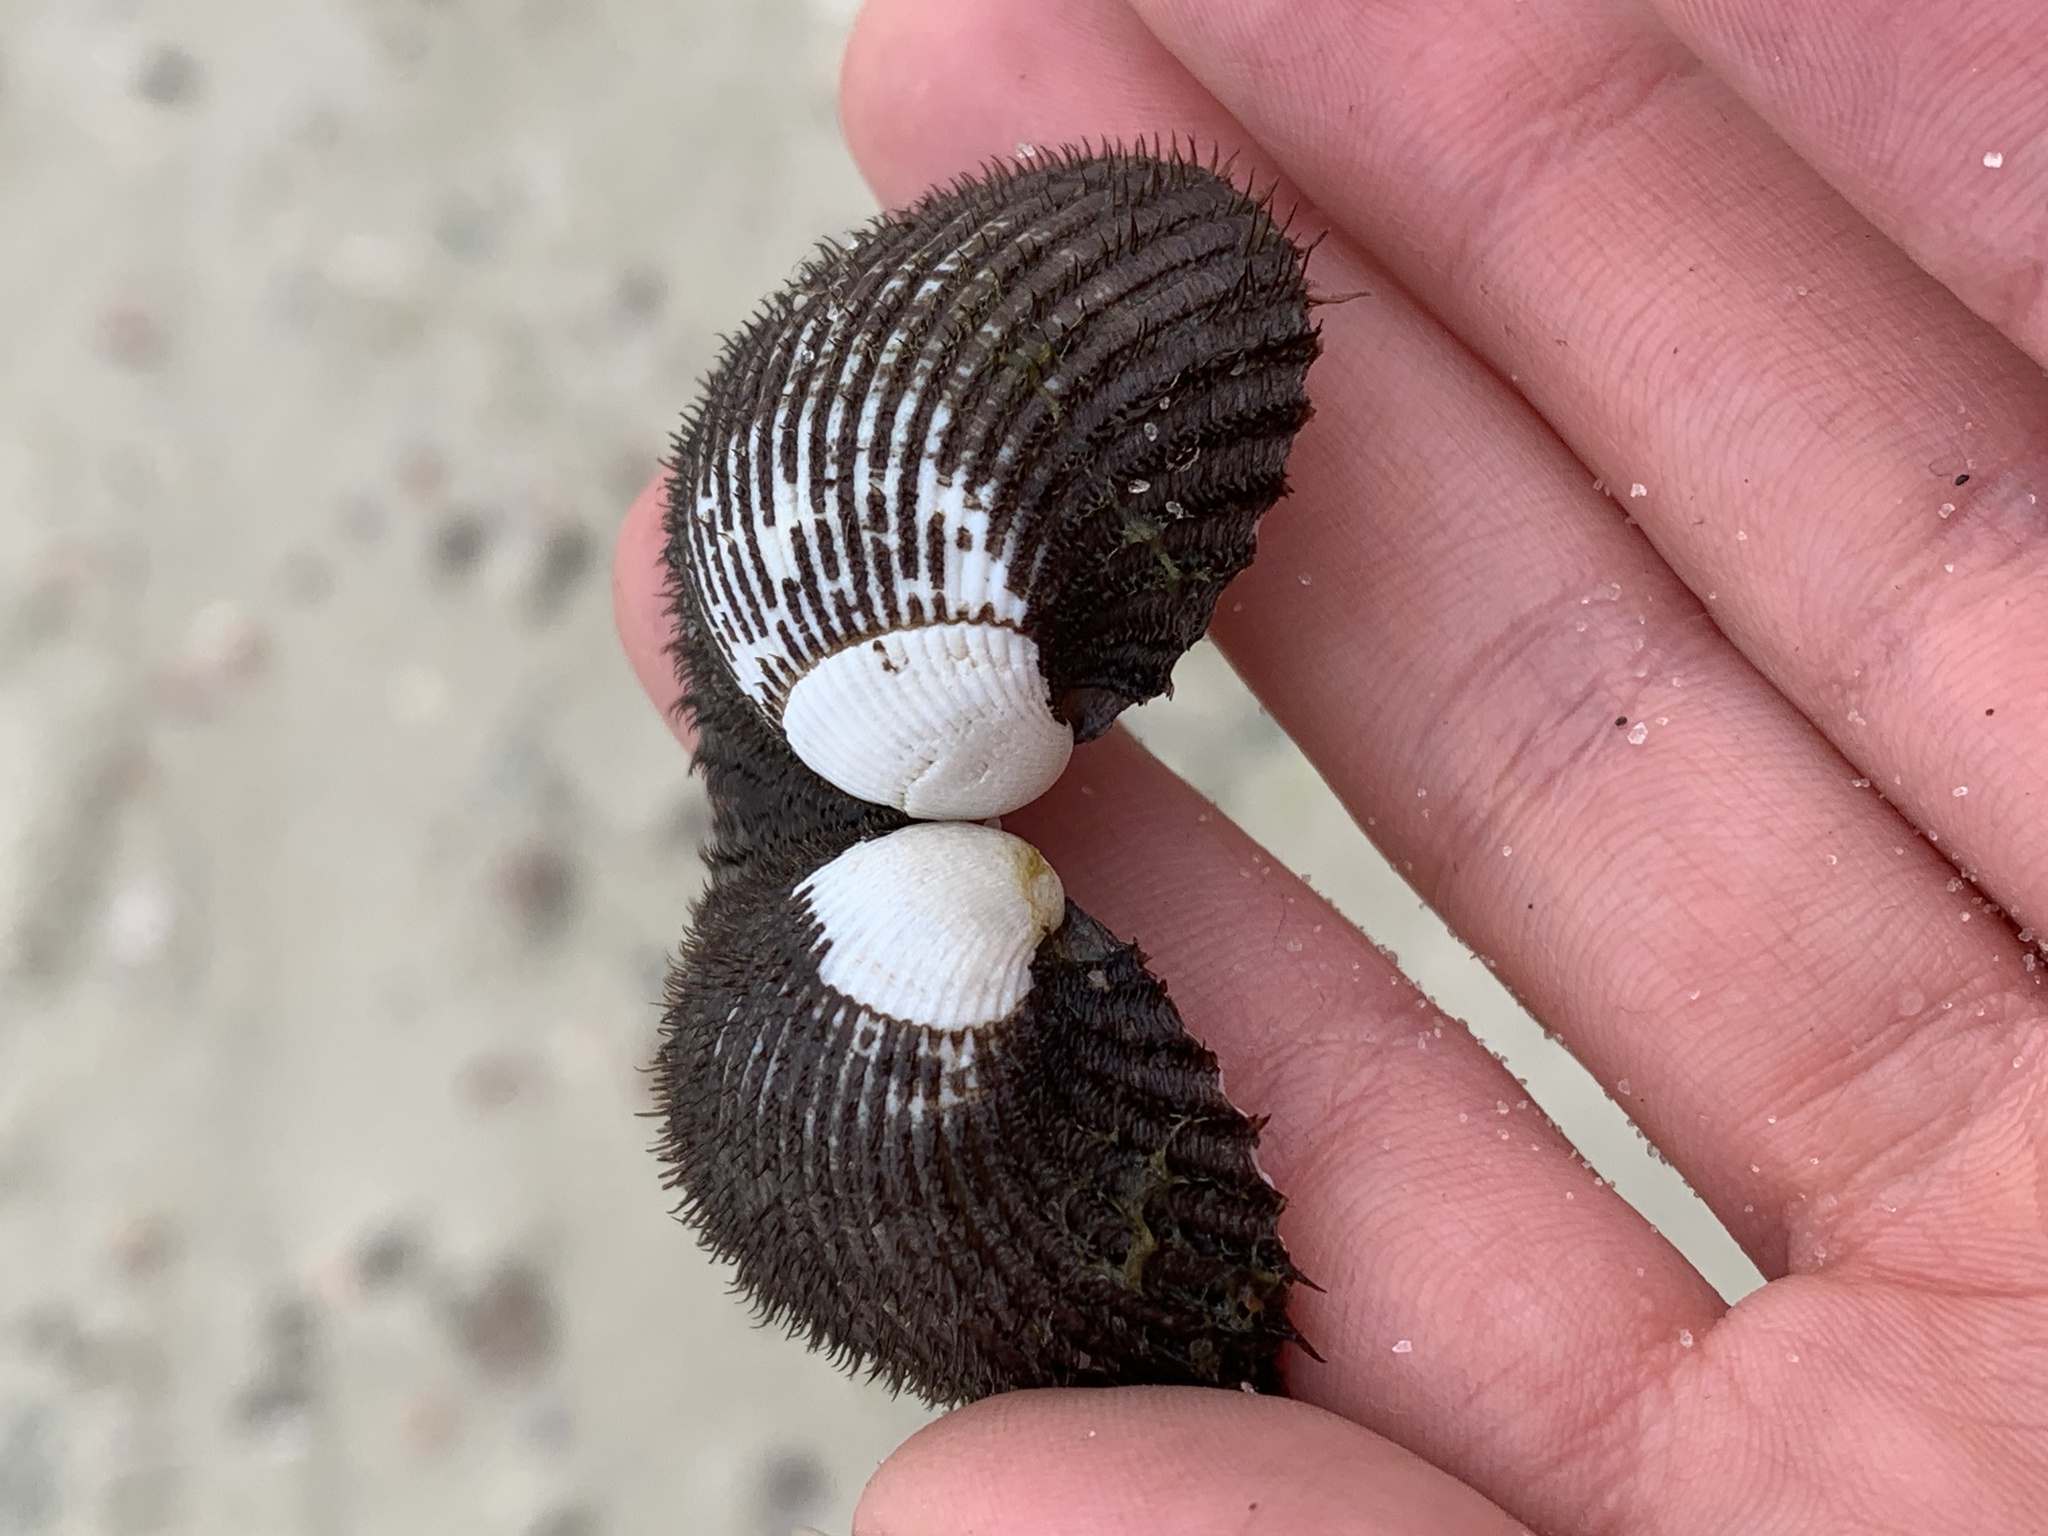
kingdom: Animalia
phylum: Mollusca
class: Bivalvia
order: Arcida
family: Arcidae
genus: Lunarca
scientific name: Lunarca ovalis
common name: Blood ark
